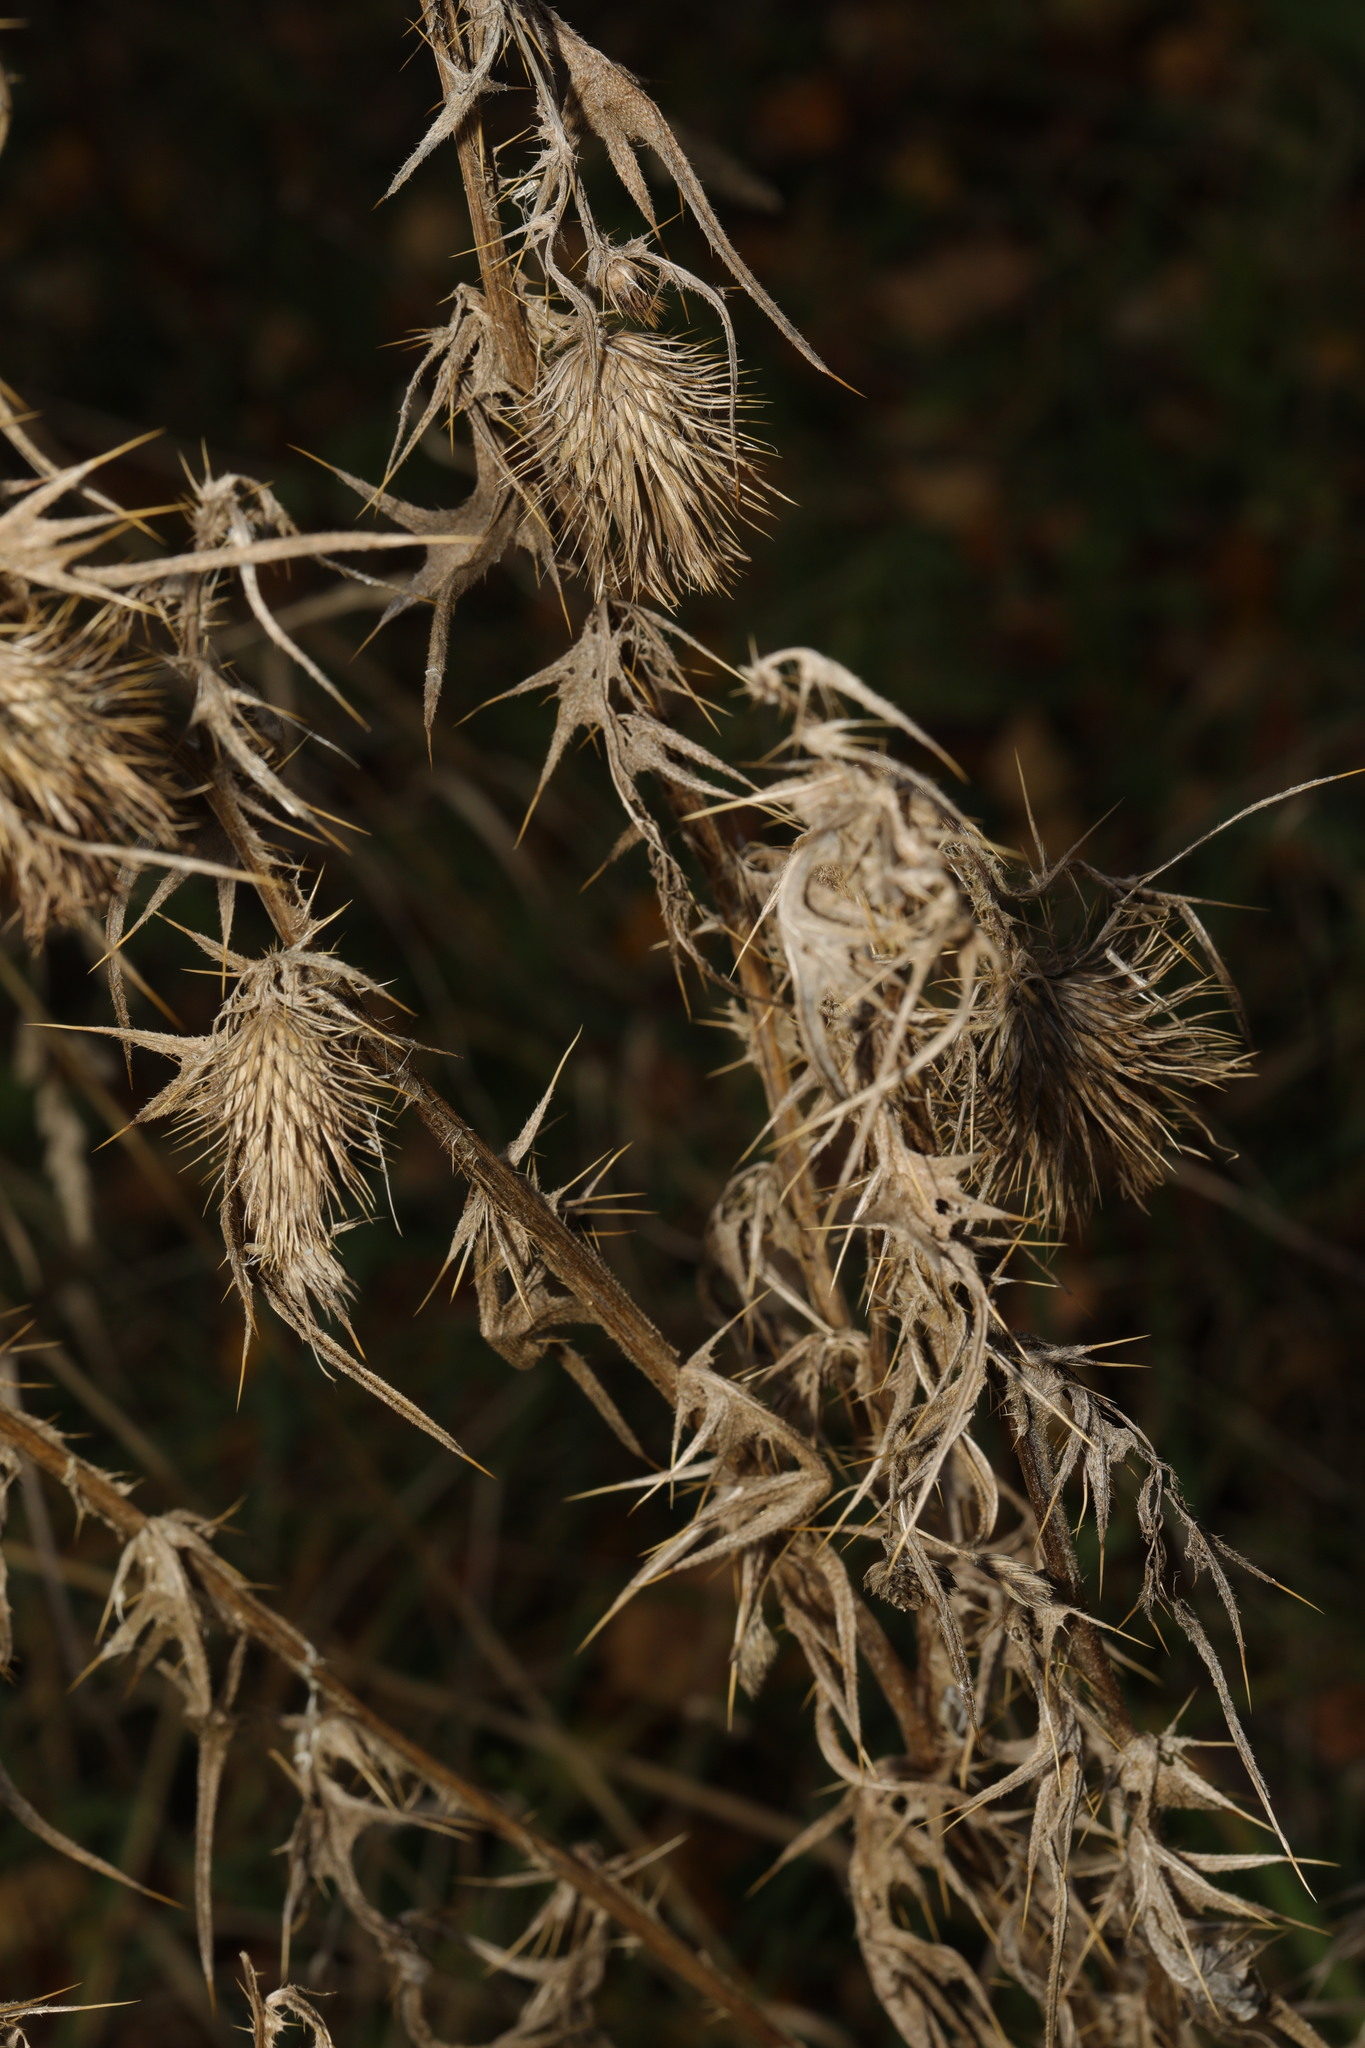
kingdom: Plantae
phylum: Tracheophyta
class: Magnoliopsida
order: Asterales
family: Asteraceae
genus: Cirsium
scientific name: Cirsium vulgare
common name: Bull thistle
